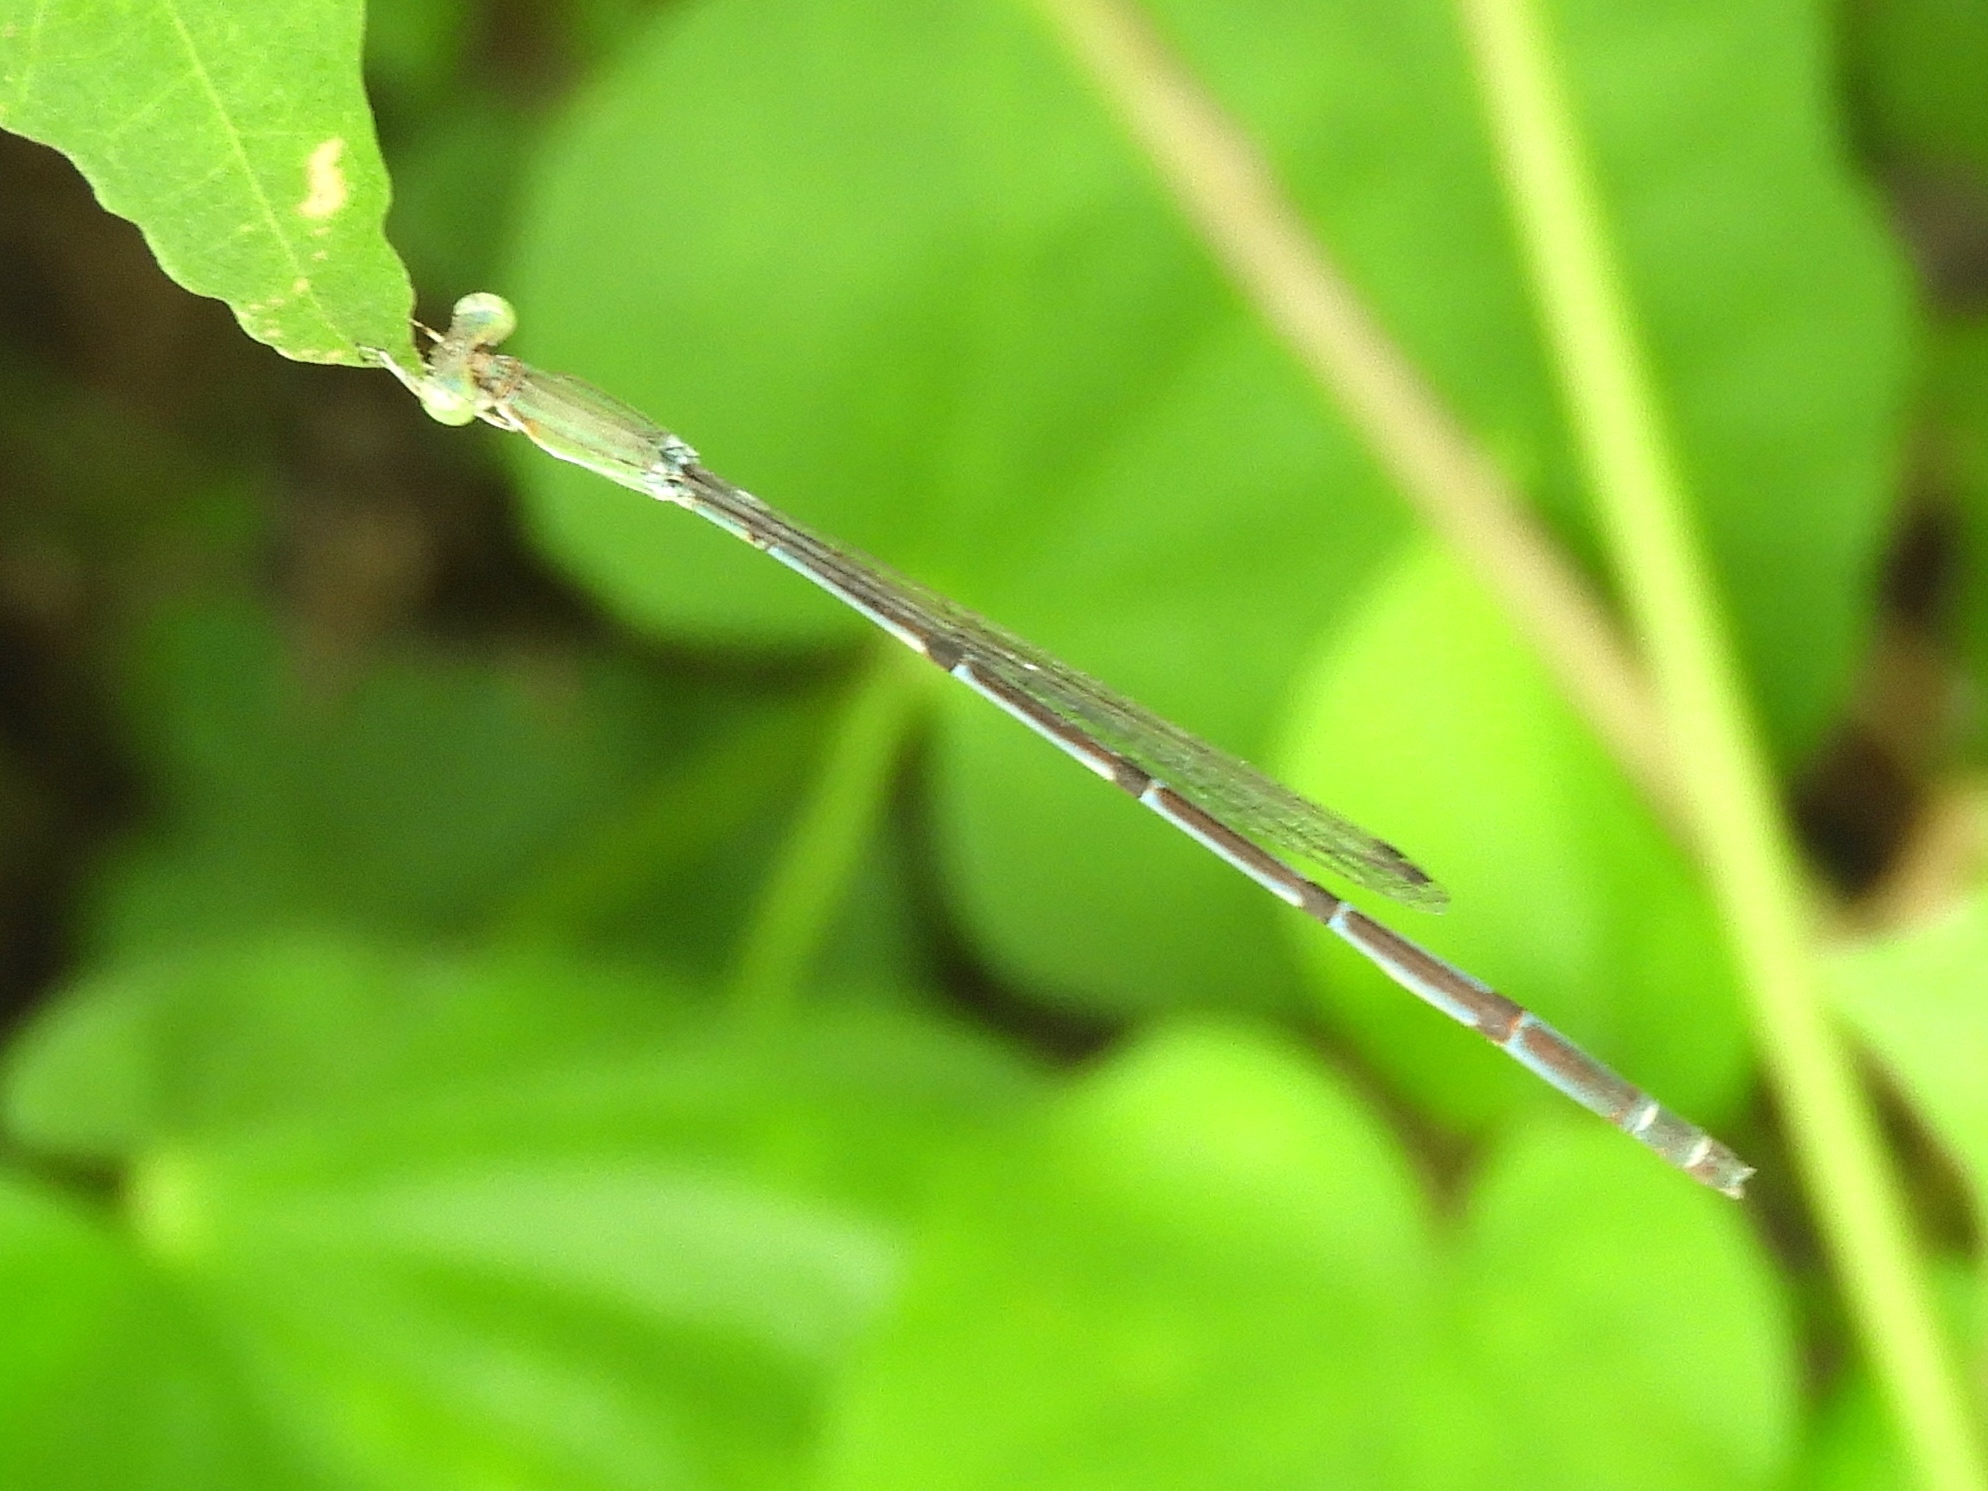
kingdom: Animalia
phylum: Arthropoda
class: Insecta
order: Odonata
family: Coenagrionidae
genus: Leptobasis
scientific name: Leptobasis melinogaster
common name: Cream-tipped swampdamsel
